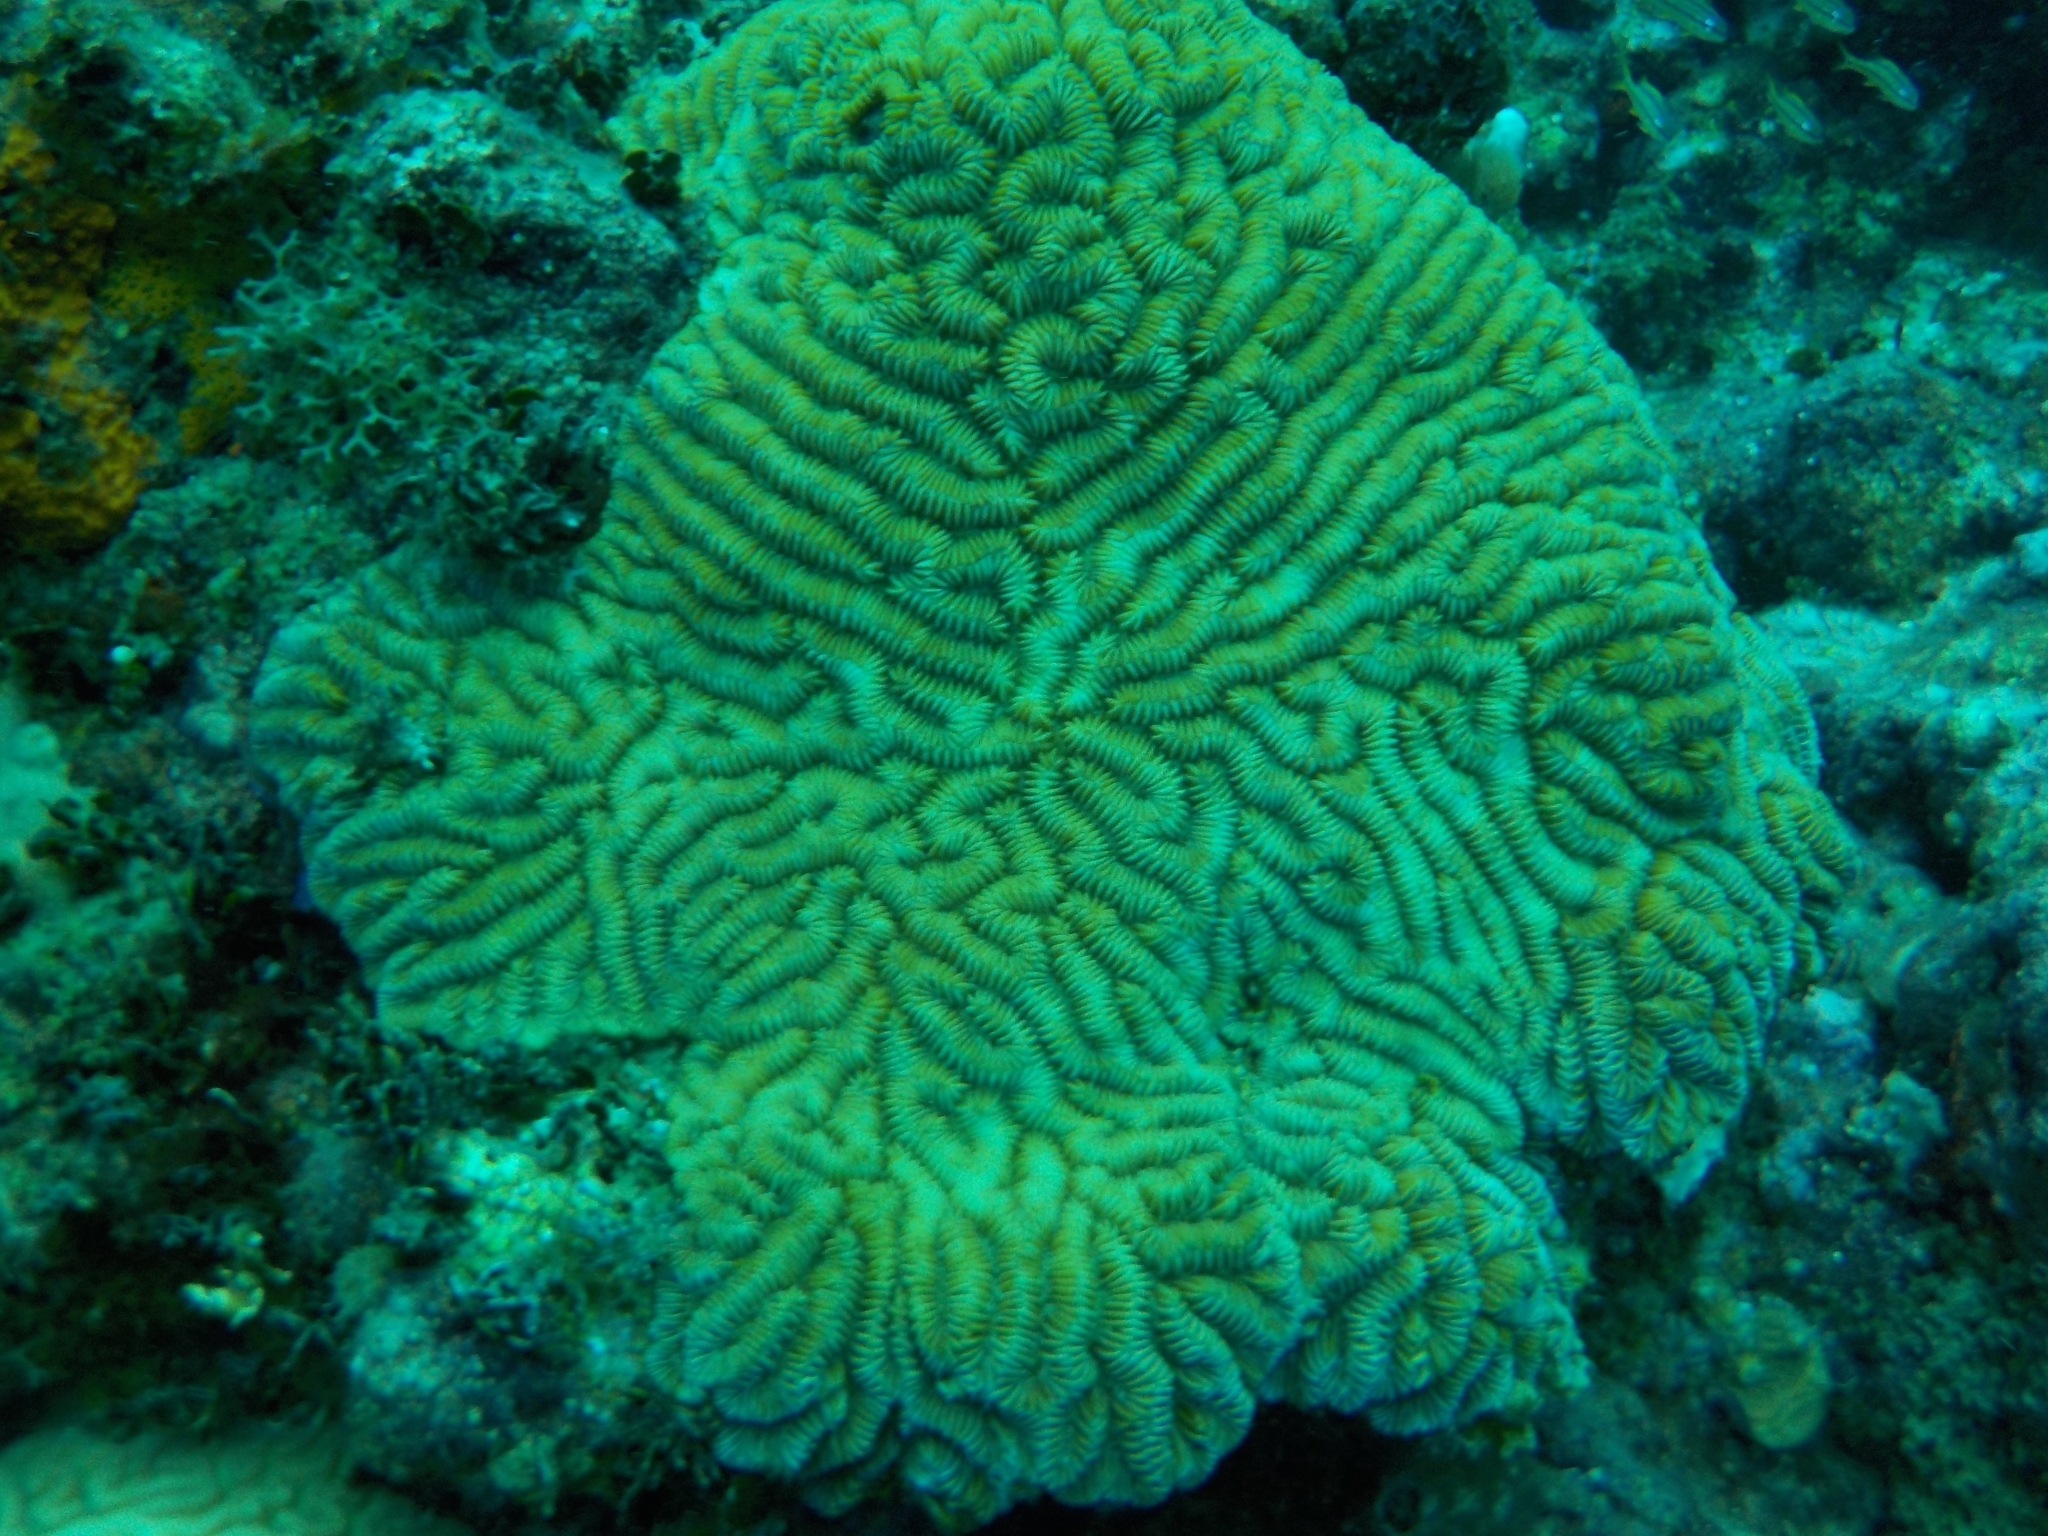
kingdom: Animalia
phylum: Cnidaria
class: Anthozoa
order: Scleractinia
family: Meandrinidae
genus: Meandrina
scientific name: Meandrina meandrites
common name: Maze coral
